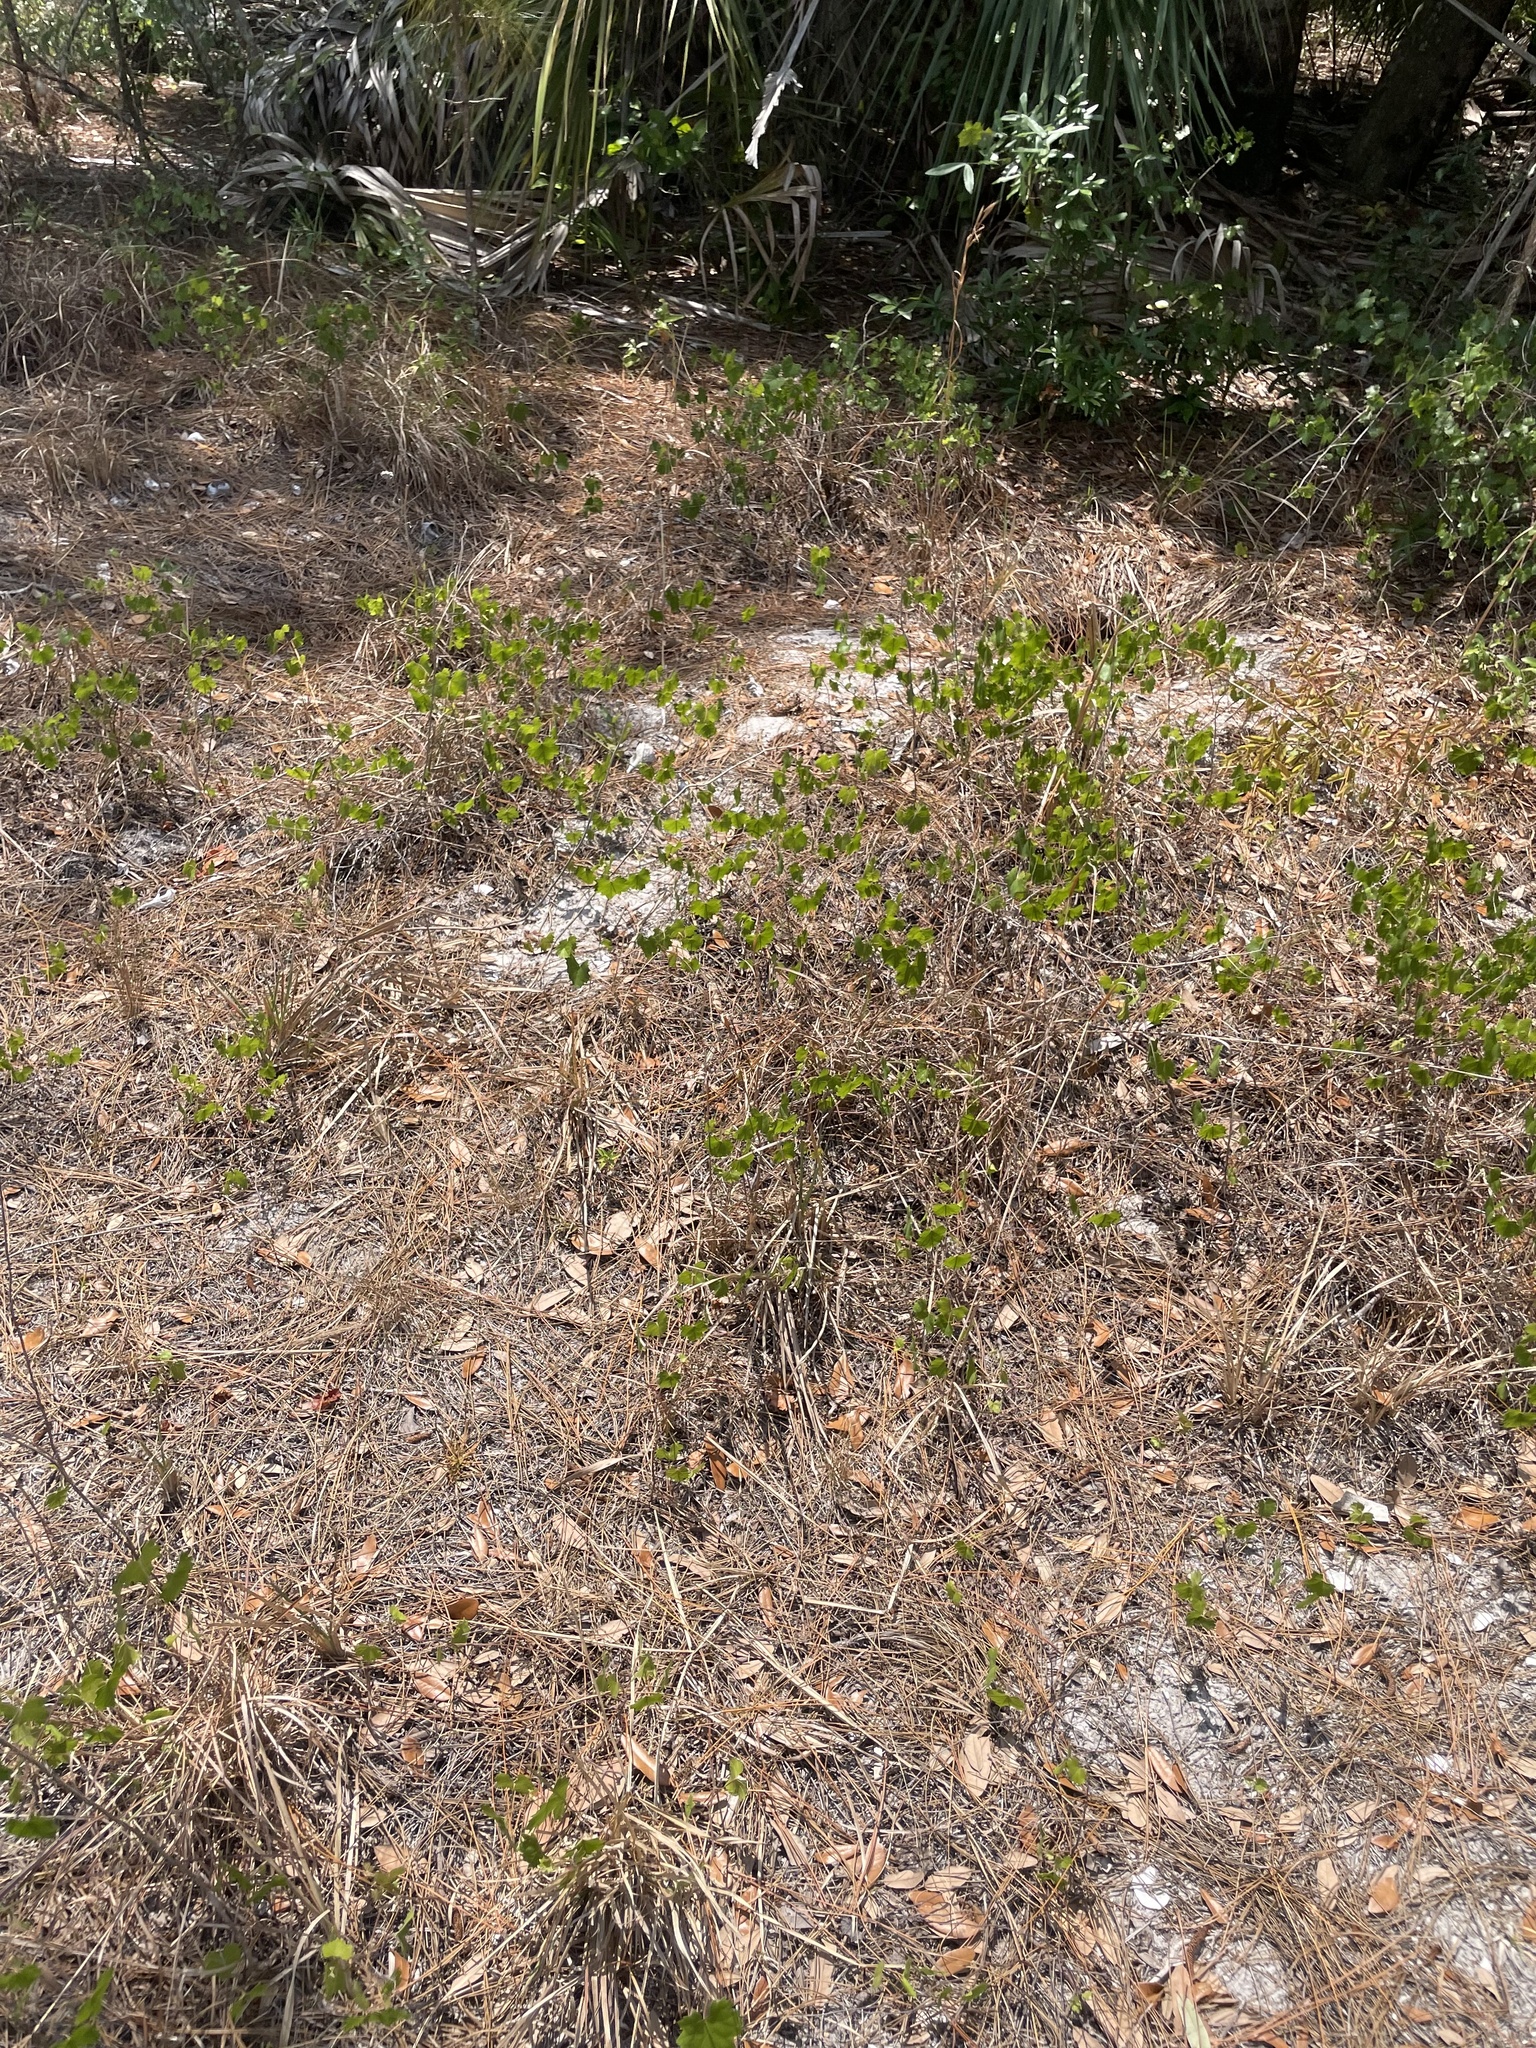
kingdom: Plantae
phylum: Tracheophyta
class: Magnoliopsida
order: Vitales
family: Vitaceae
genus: Vitis
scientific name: Vitis rotundifolia
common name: Muscadine grape
